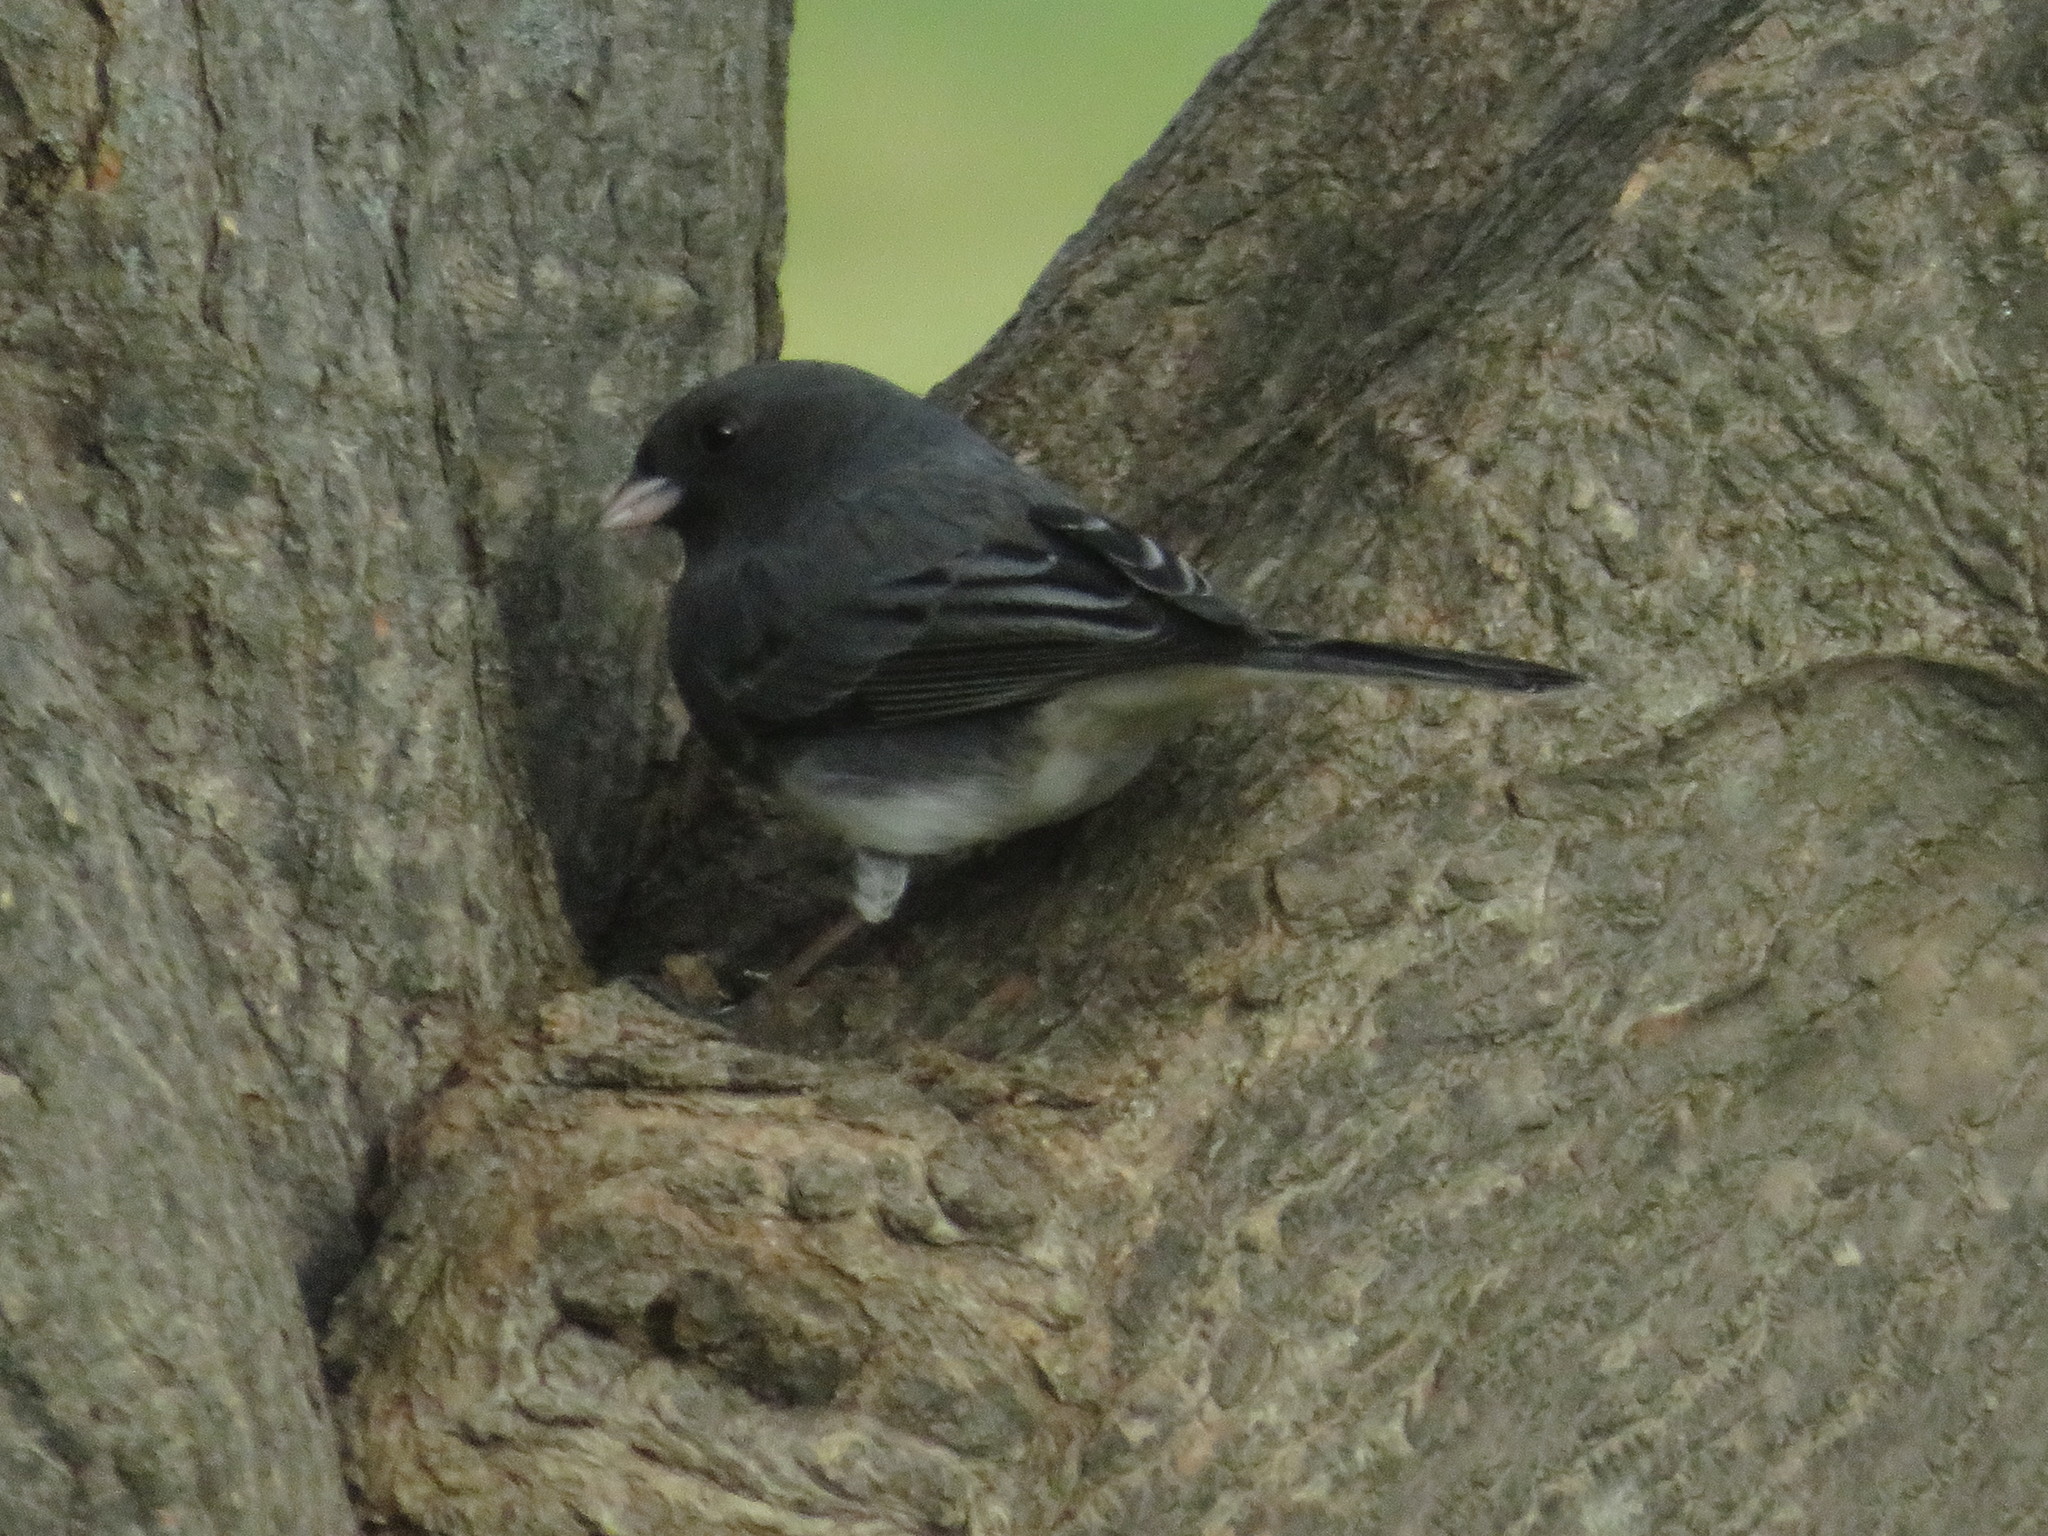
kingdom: Animalia
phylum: Chordata
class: Aves
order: Passeriformes
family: Passerellidae
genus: Junco
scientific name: Junco hyemalis
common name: Dark-eyed junco
